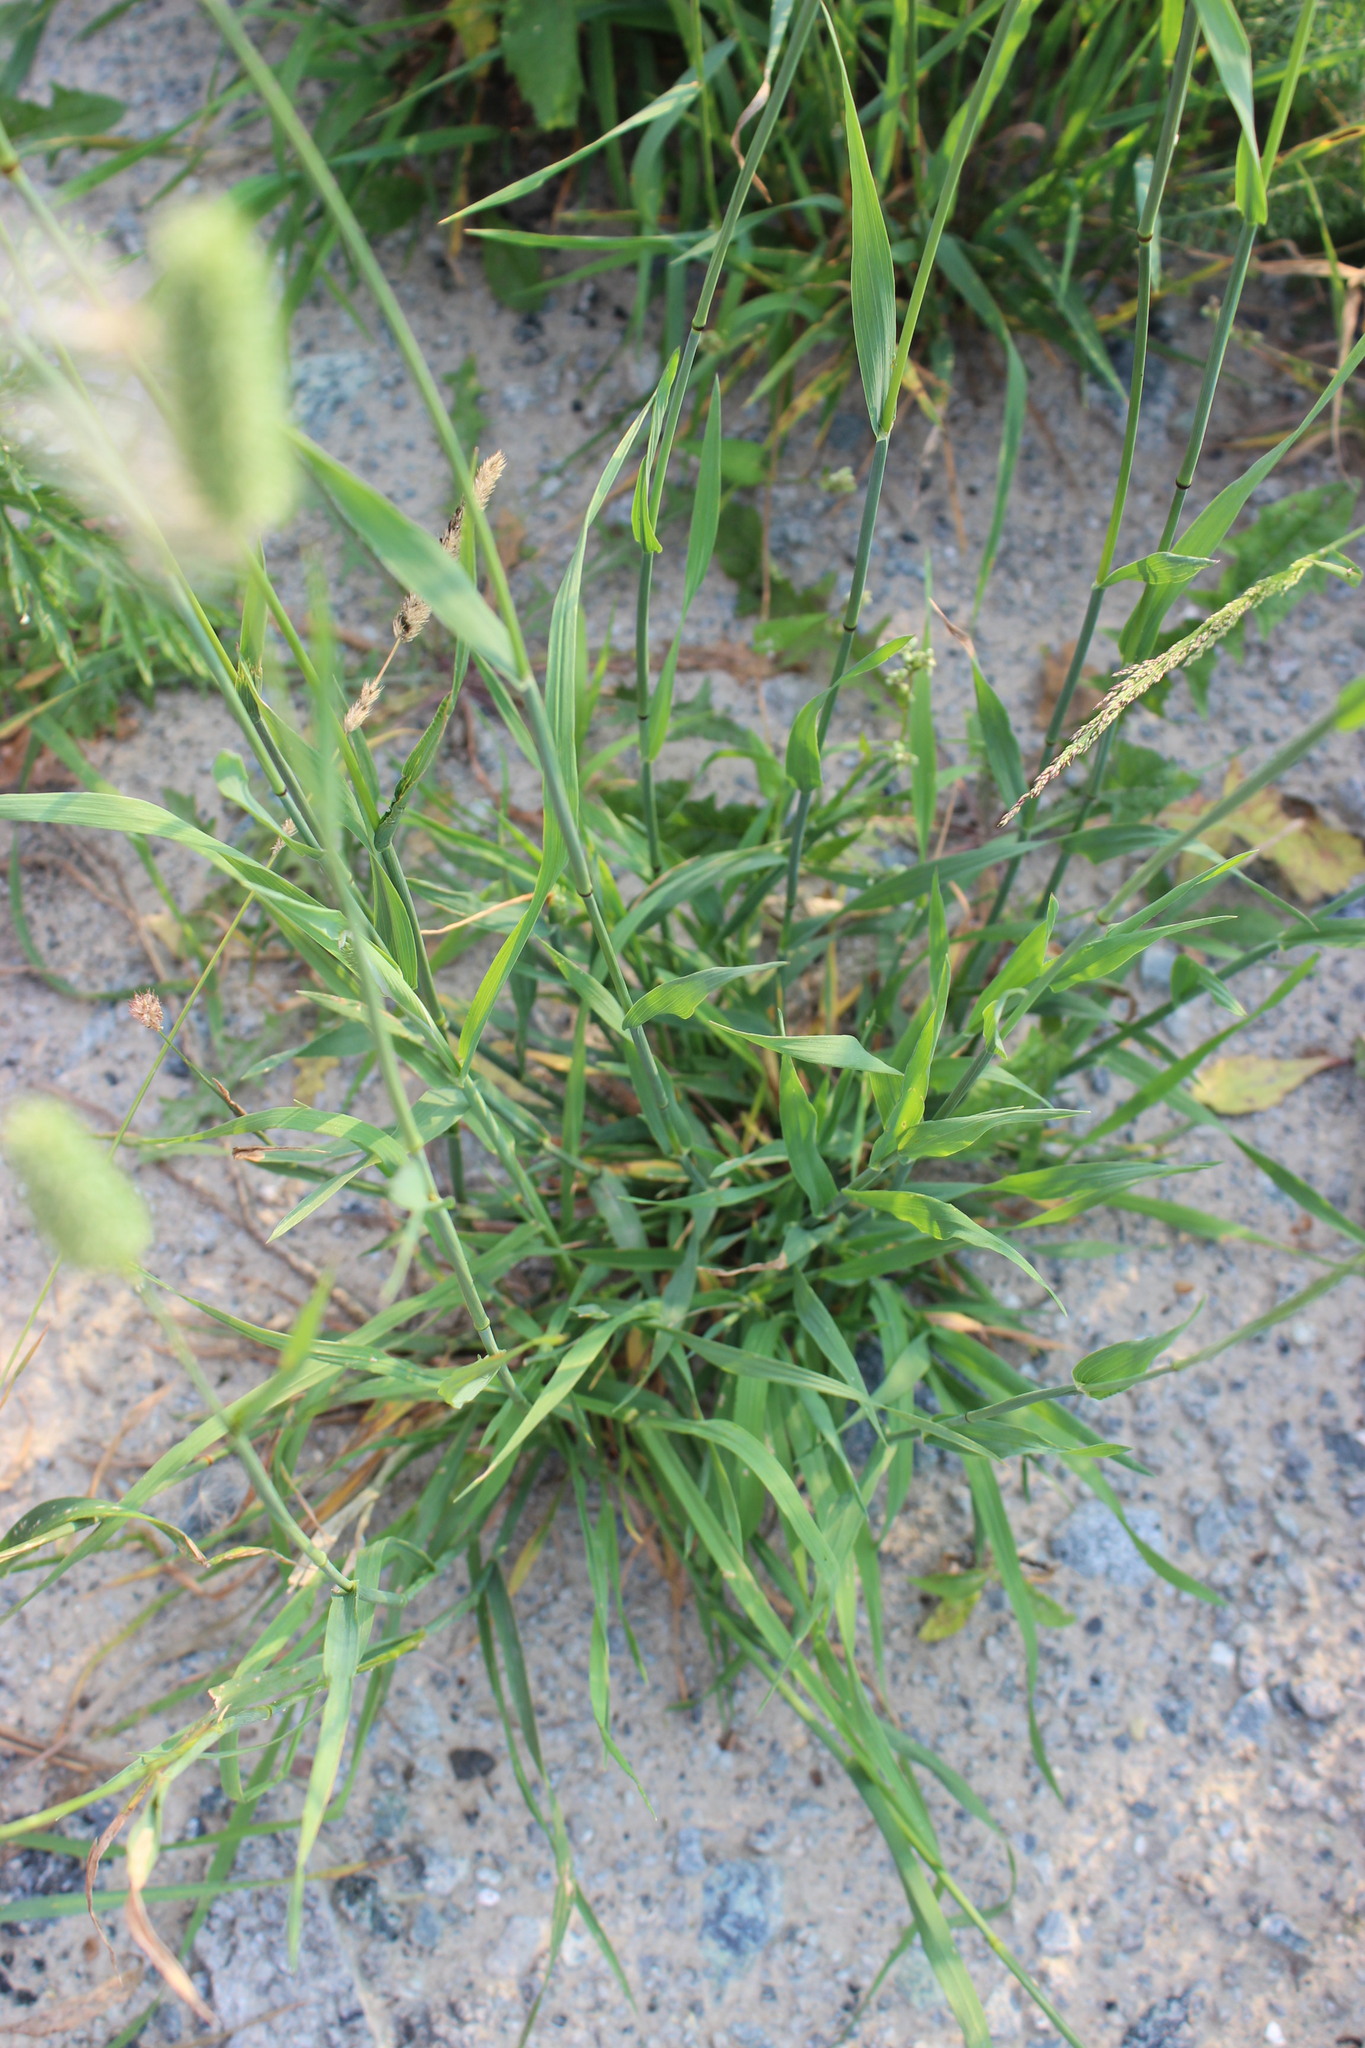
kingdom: Plantae
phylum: Tracheophyta
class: Liliopsida
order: Poales
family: Poaceae
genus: Phleum
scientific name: Phleum pratense
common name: Timothy grass
